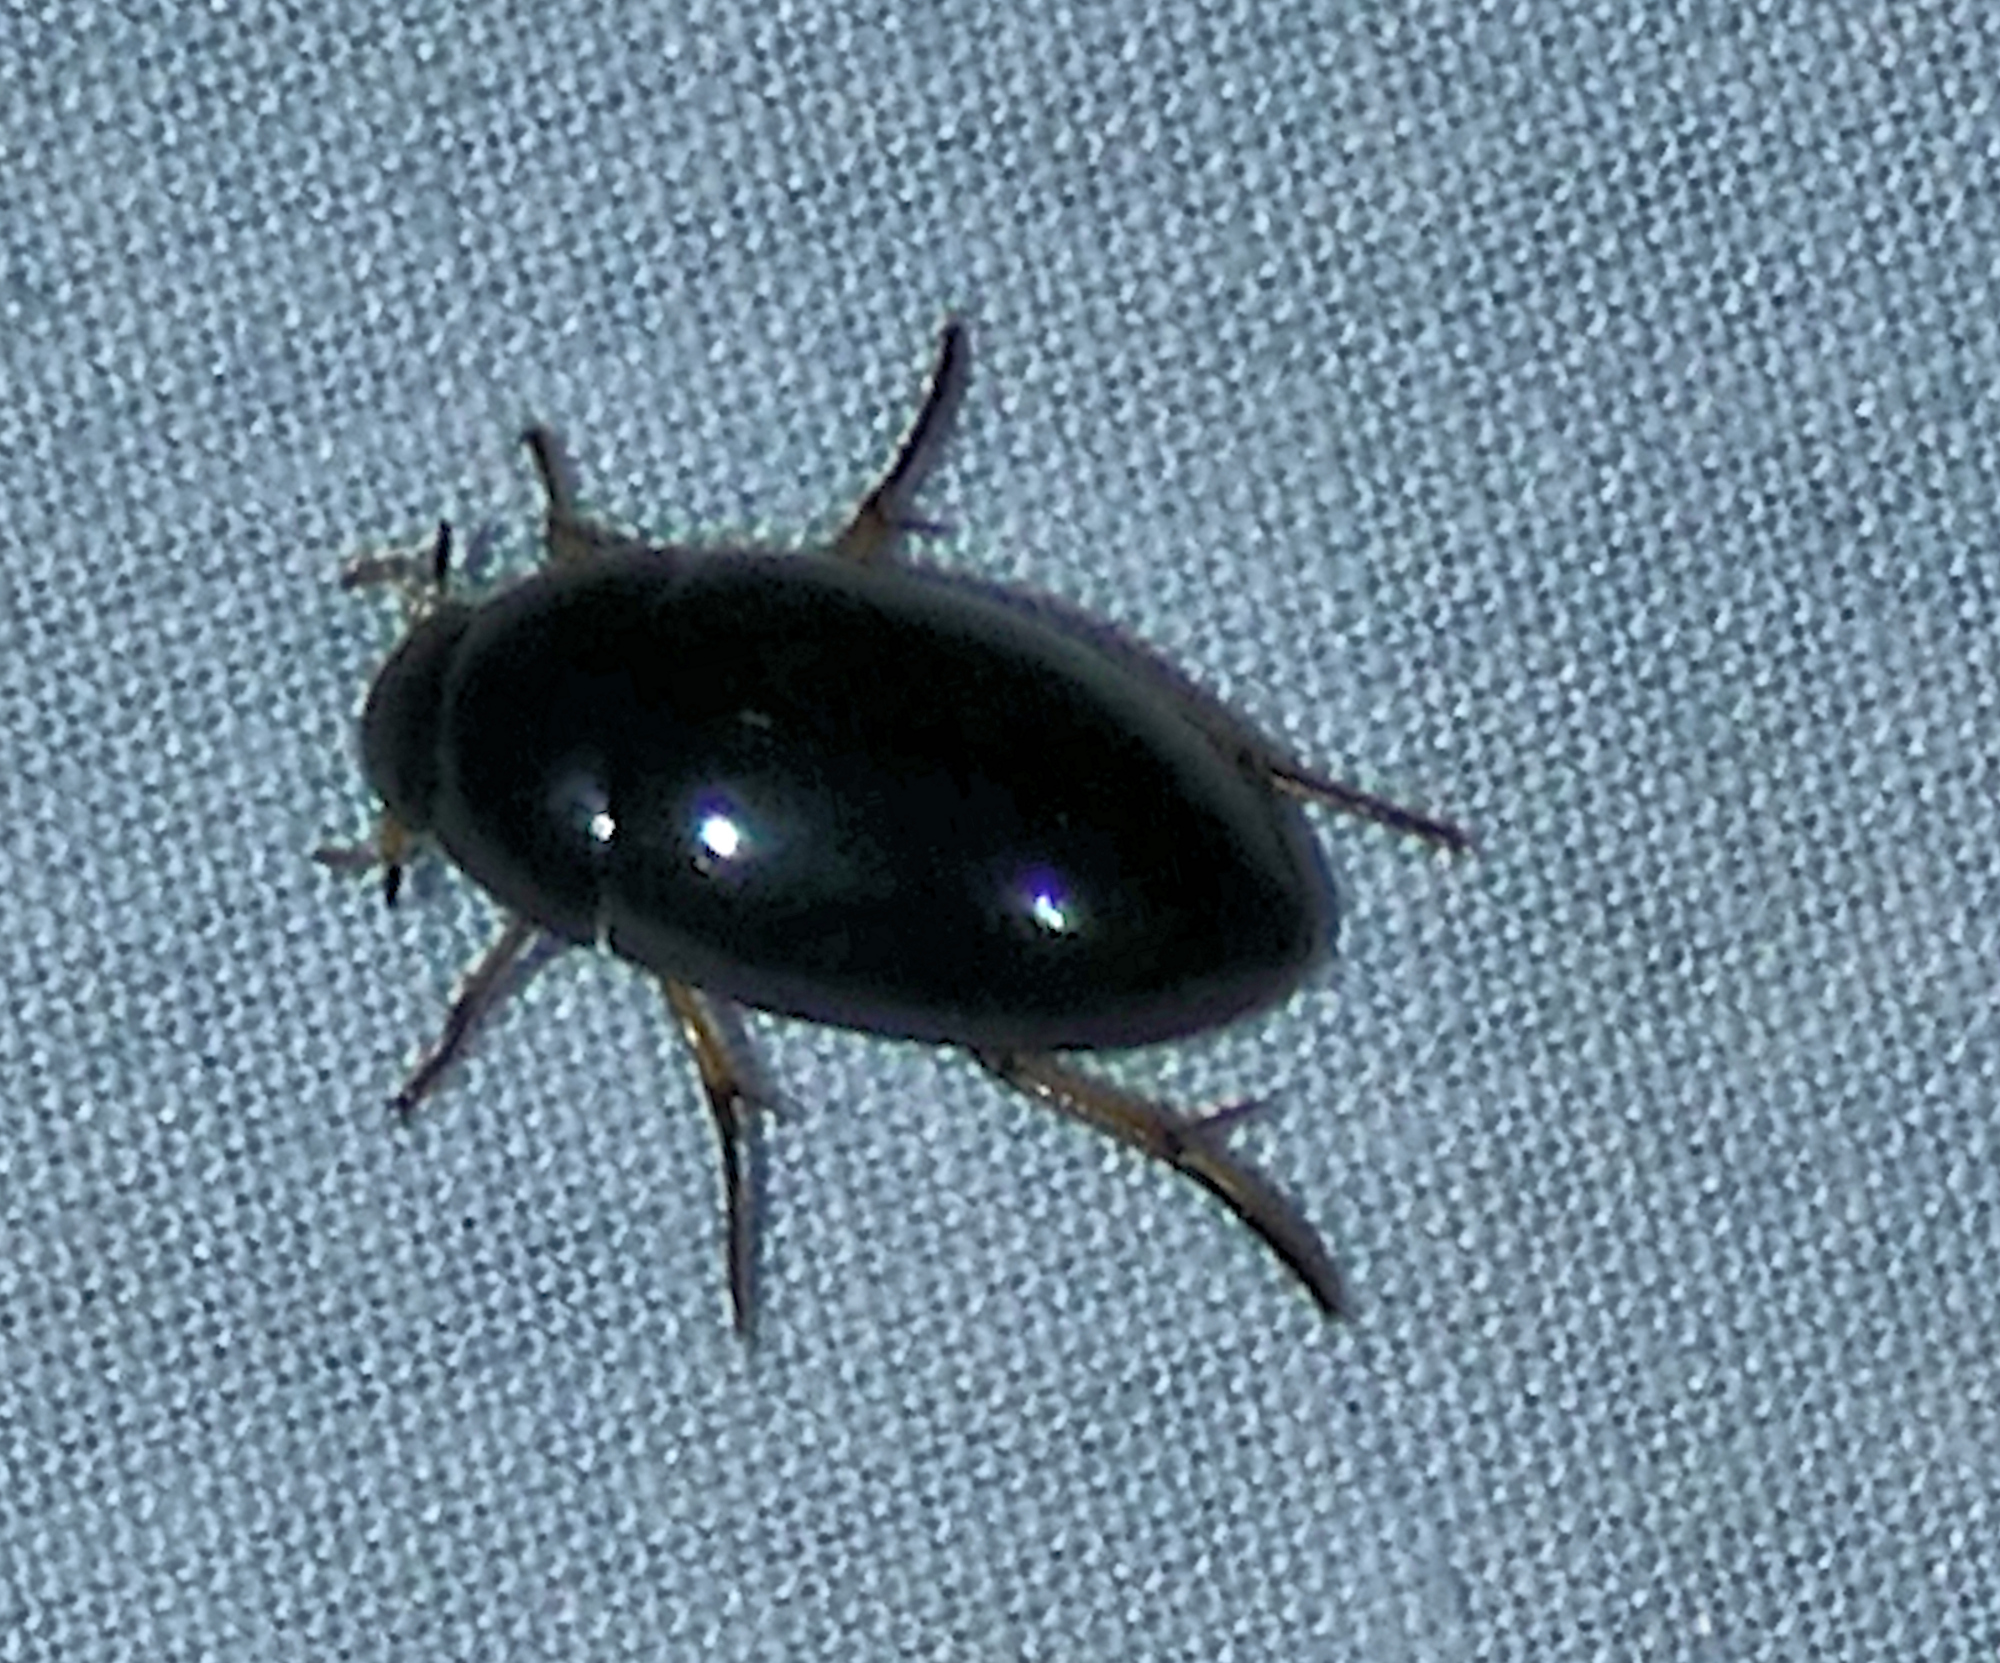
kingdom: Animalia
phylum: Arthropoda
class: Insecta
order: Coleoptera
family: Hydrophilidae
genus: Tropisternus
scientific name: Tropisternus quadristriatus
